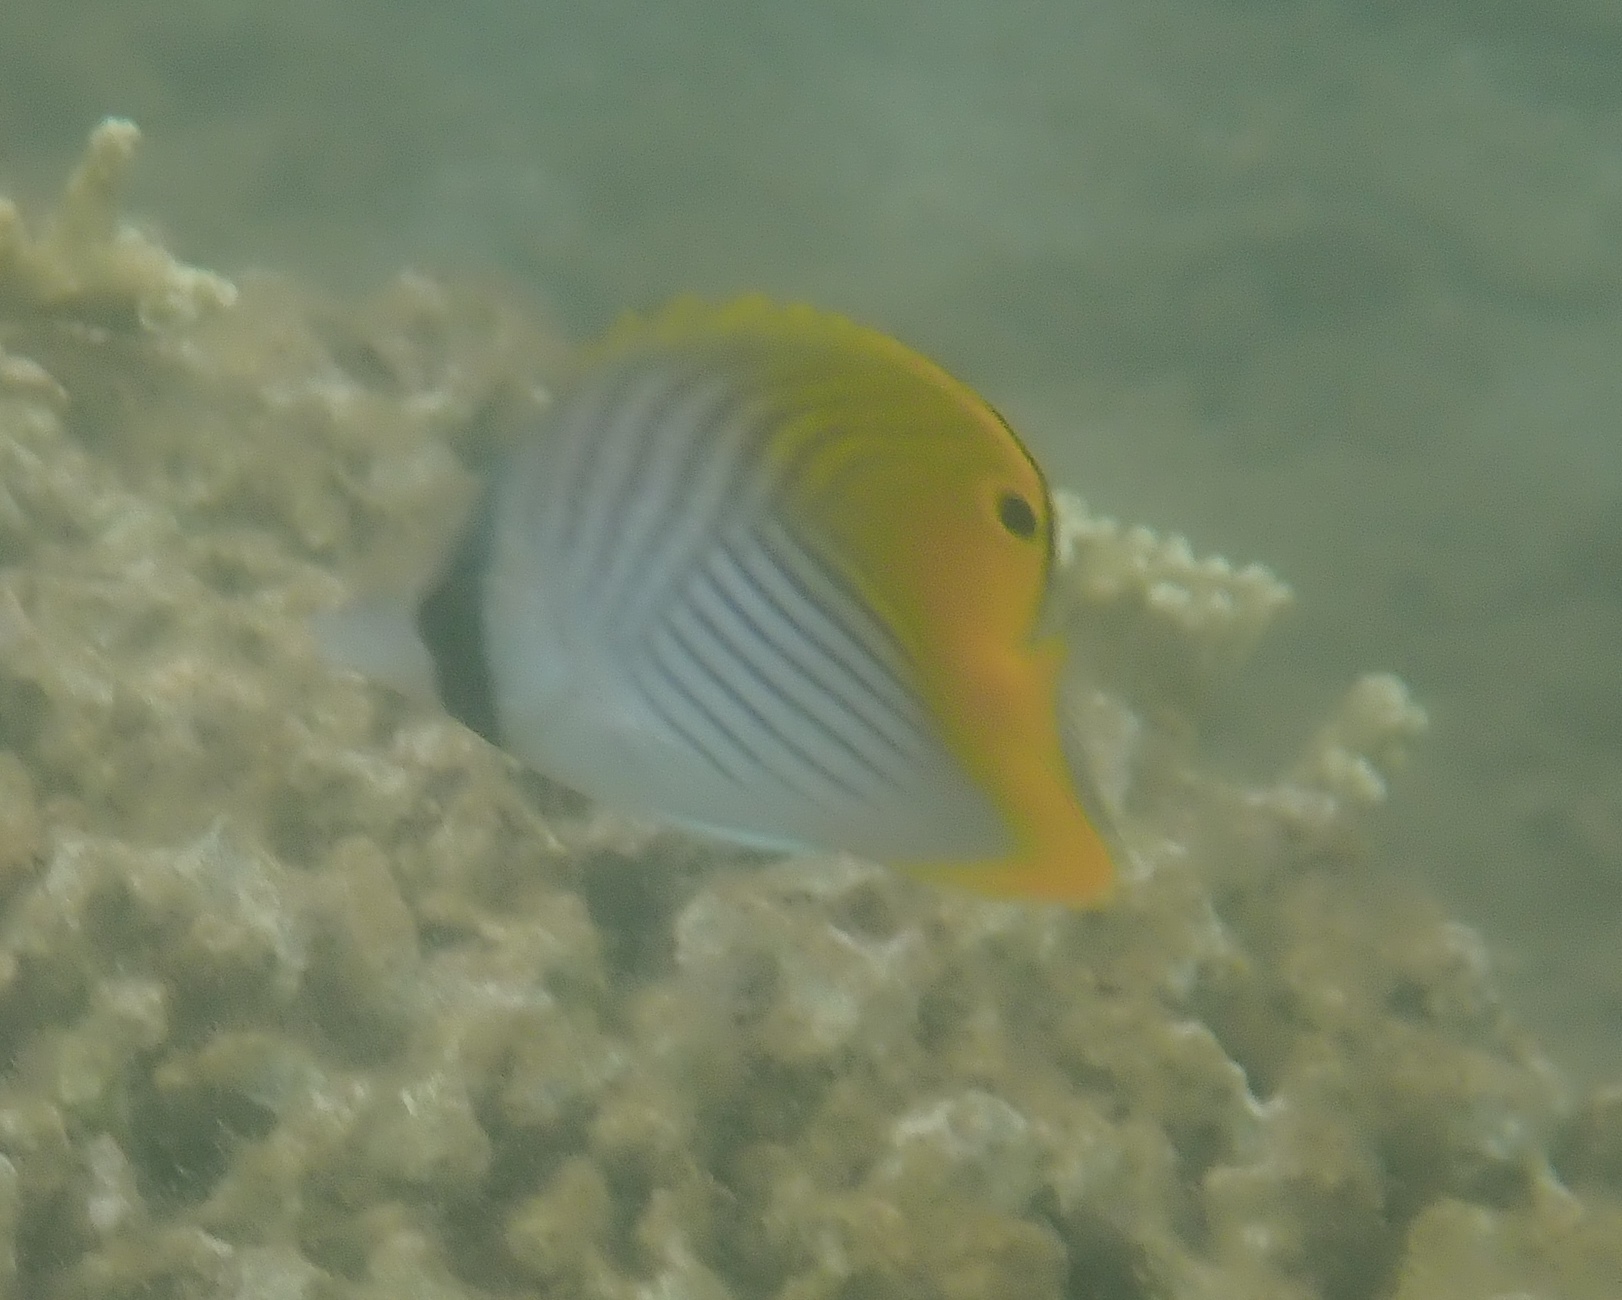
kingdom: Animalia
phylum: Chordata
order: Perciformes
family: Chaetodontidae
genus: Chaetodon
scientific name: Chaetodon auriga
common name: Threadfin butterflyfish
